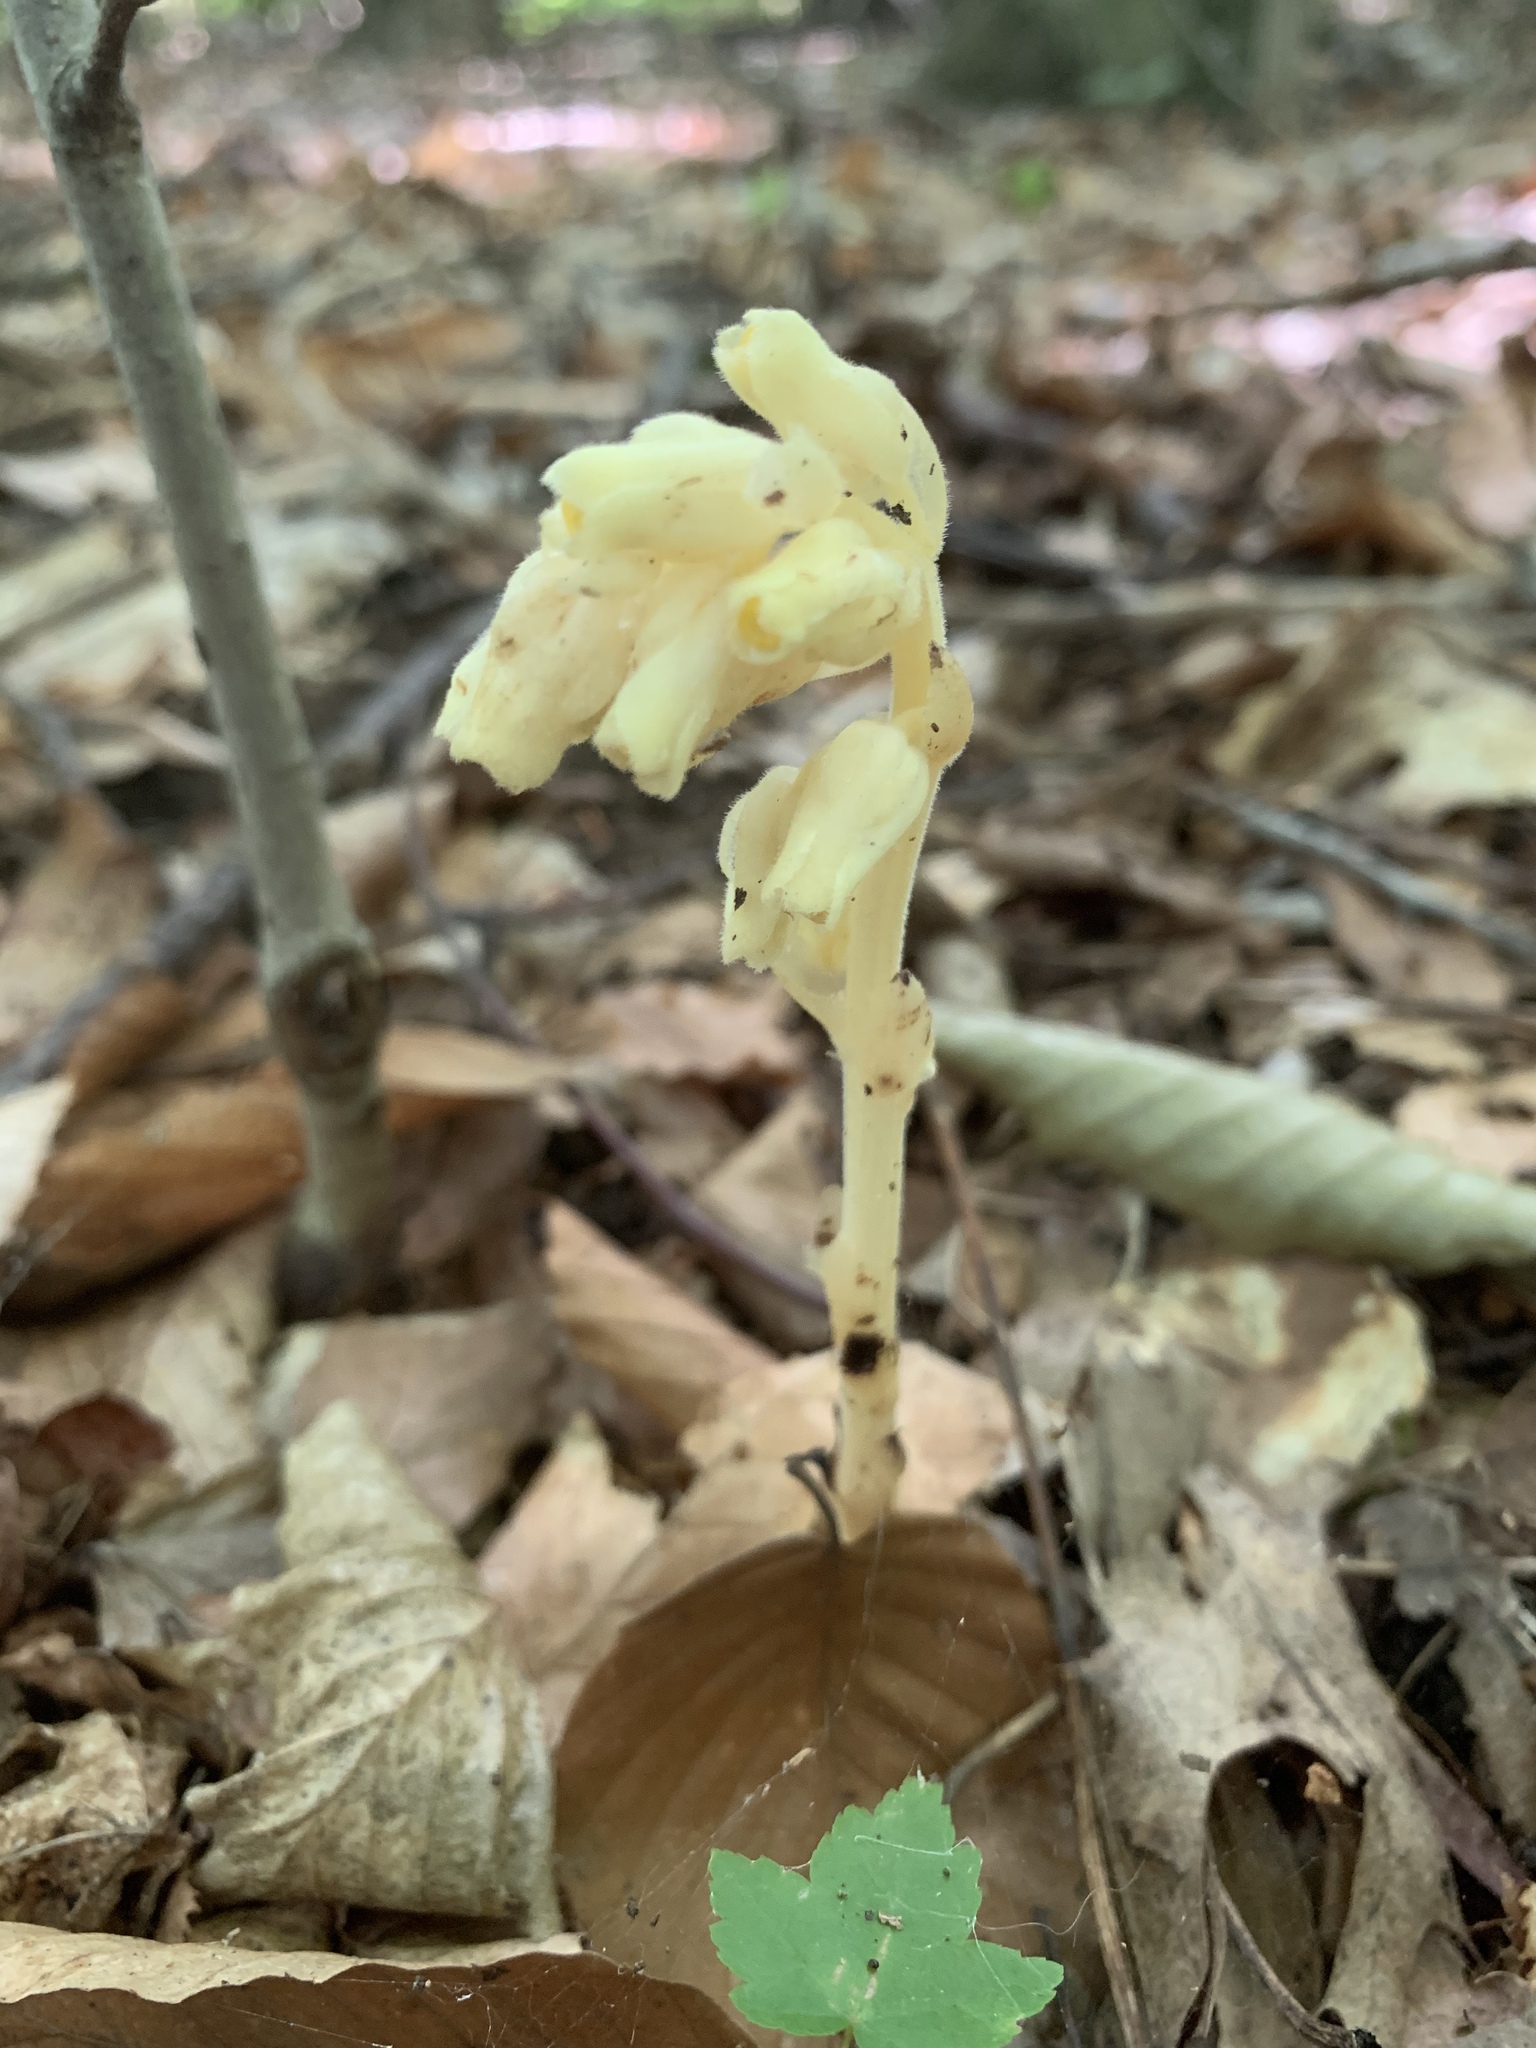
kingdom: Plantae
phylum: Tracheophyta
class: Magnoliopsida
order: Ericales
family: Ericaceae
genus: Hypopitys
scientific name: Hypopitys monotropa
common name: Yellow bird's-nest
